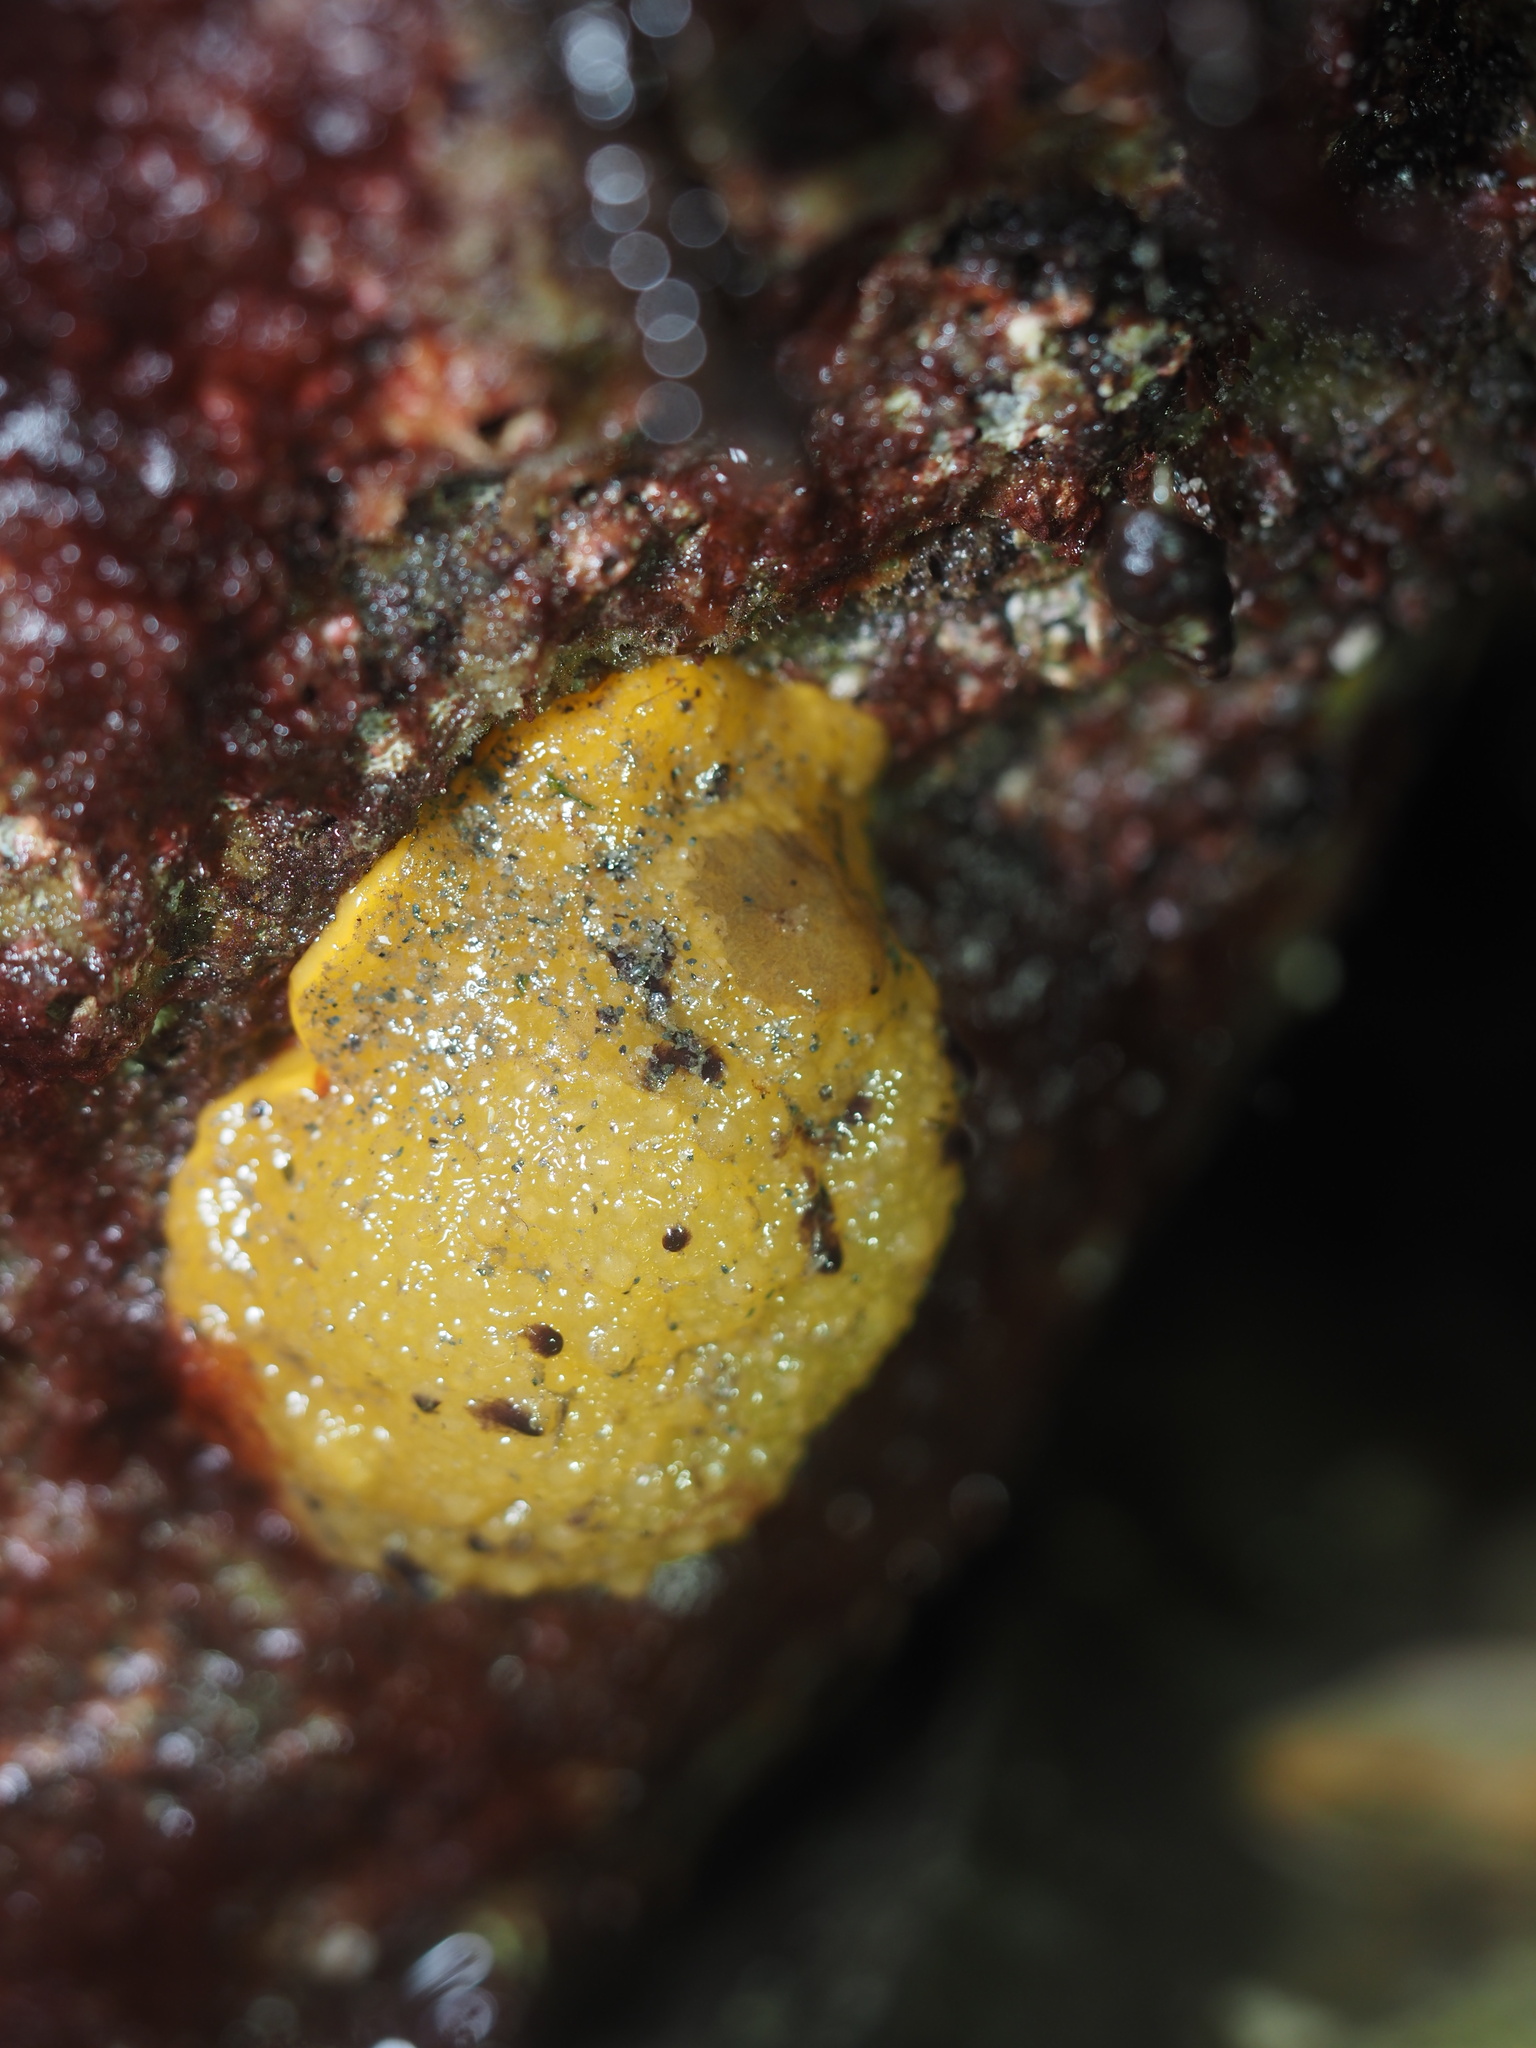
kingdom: Animalia
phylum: Mollusca
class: Gastropoda
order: Nudibranchia
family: Dorididae
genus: Doris
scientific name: Doris montereyensis
